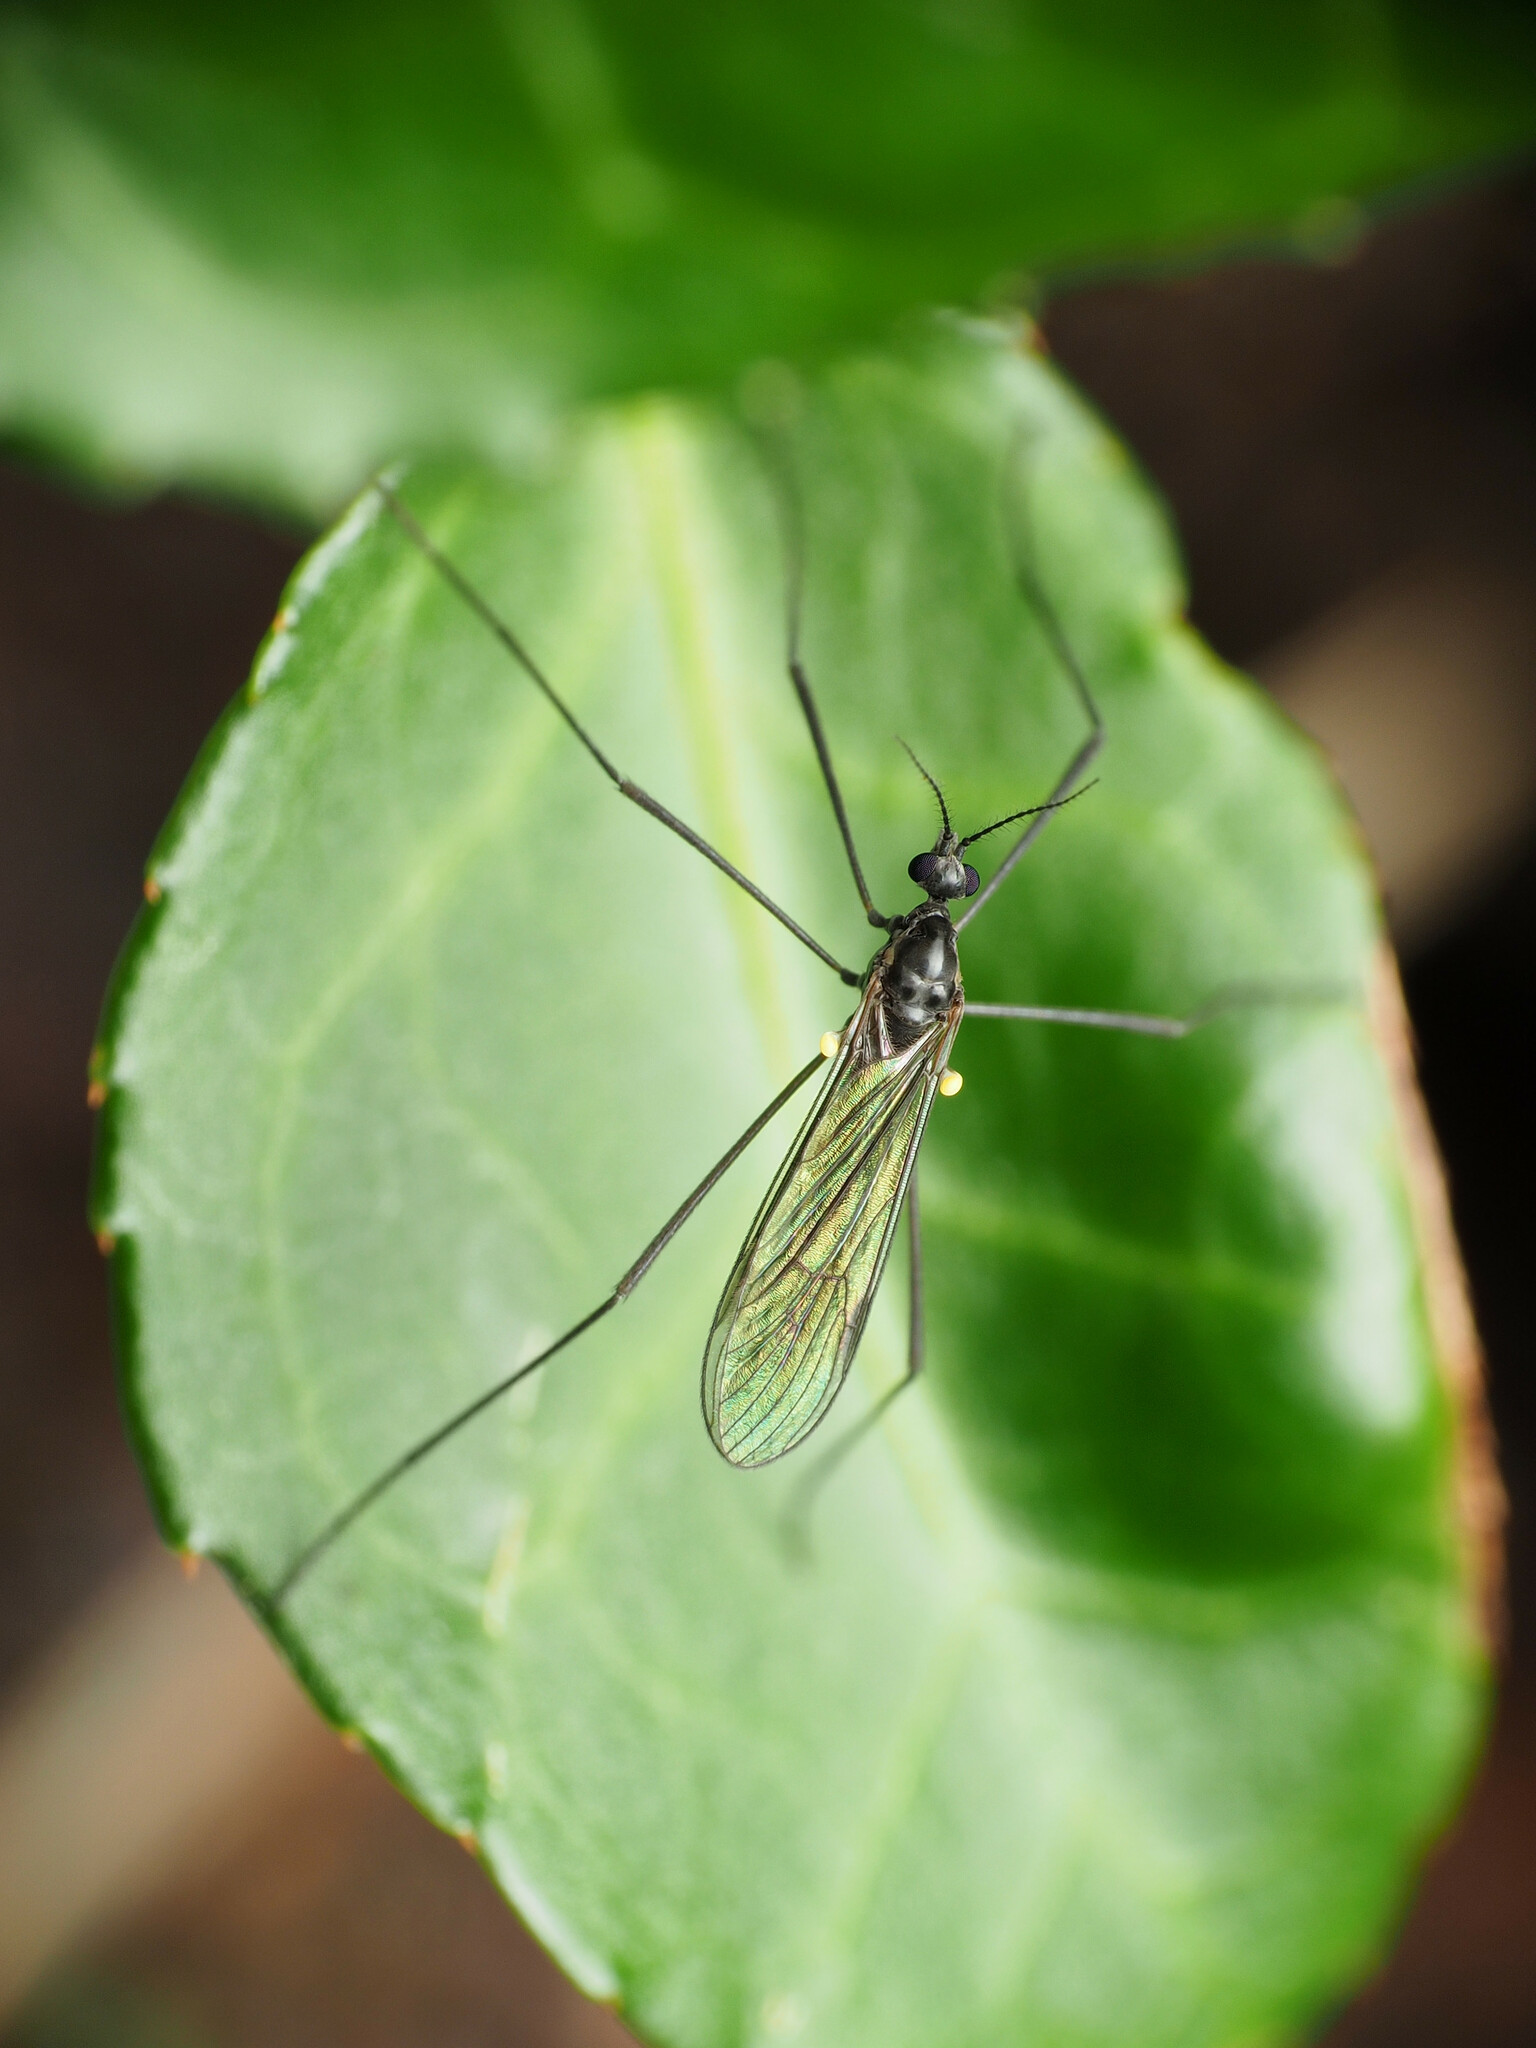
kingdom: Animalia
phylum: Arthropoda
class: Insecta
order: Diptera
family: Limoniidae
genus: Gnophomyia
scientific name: Gnophomyia tristissima
